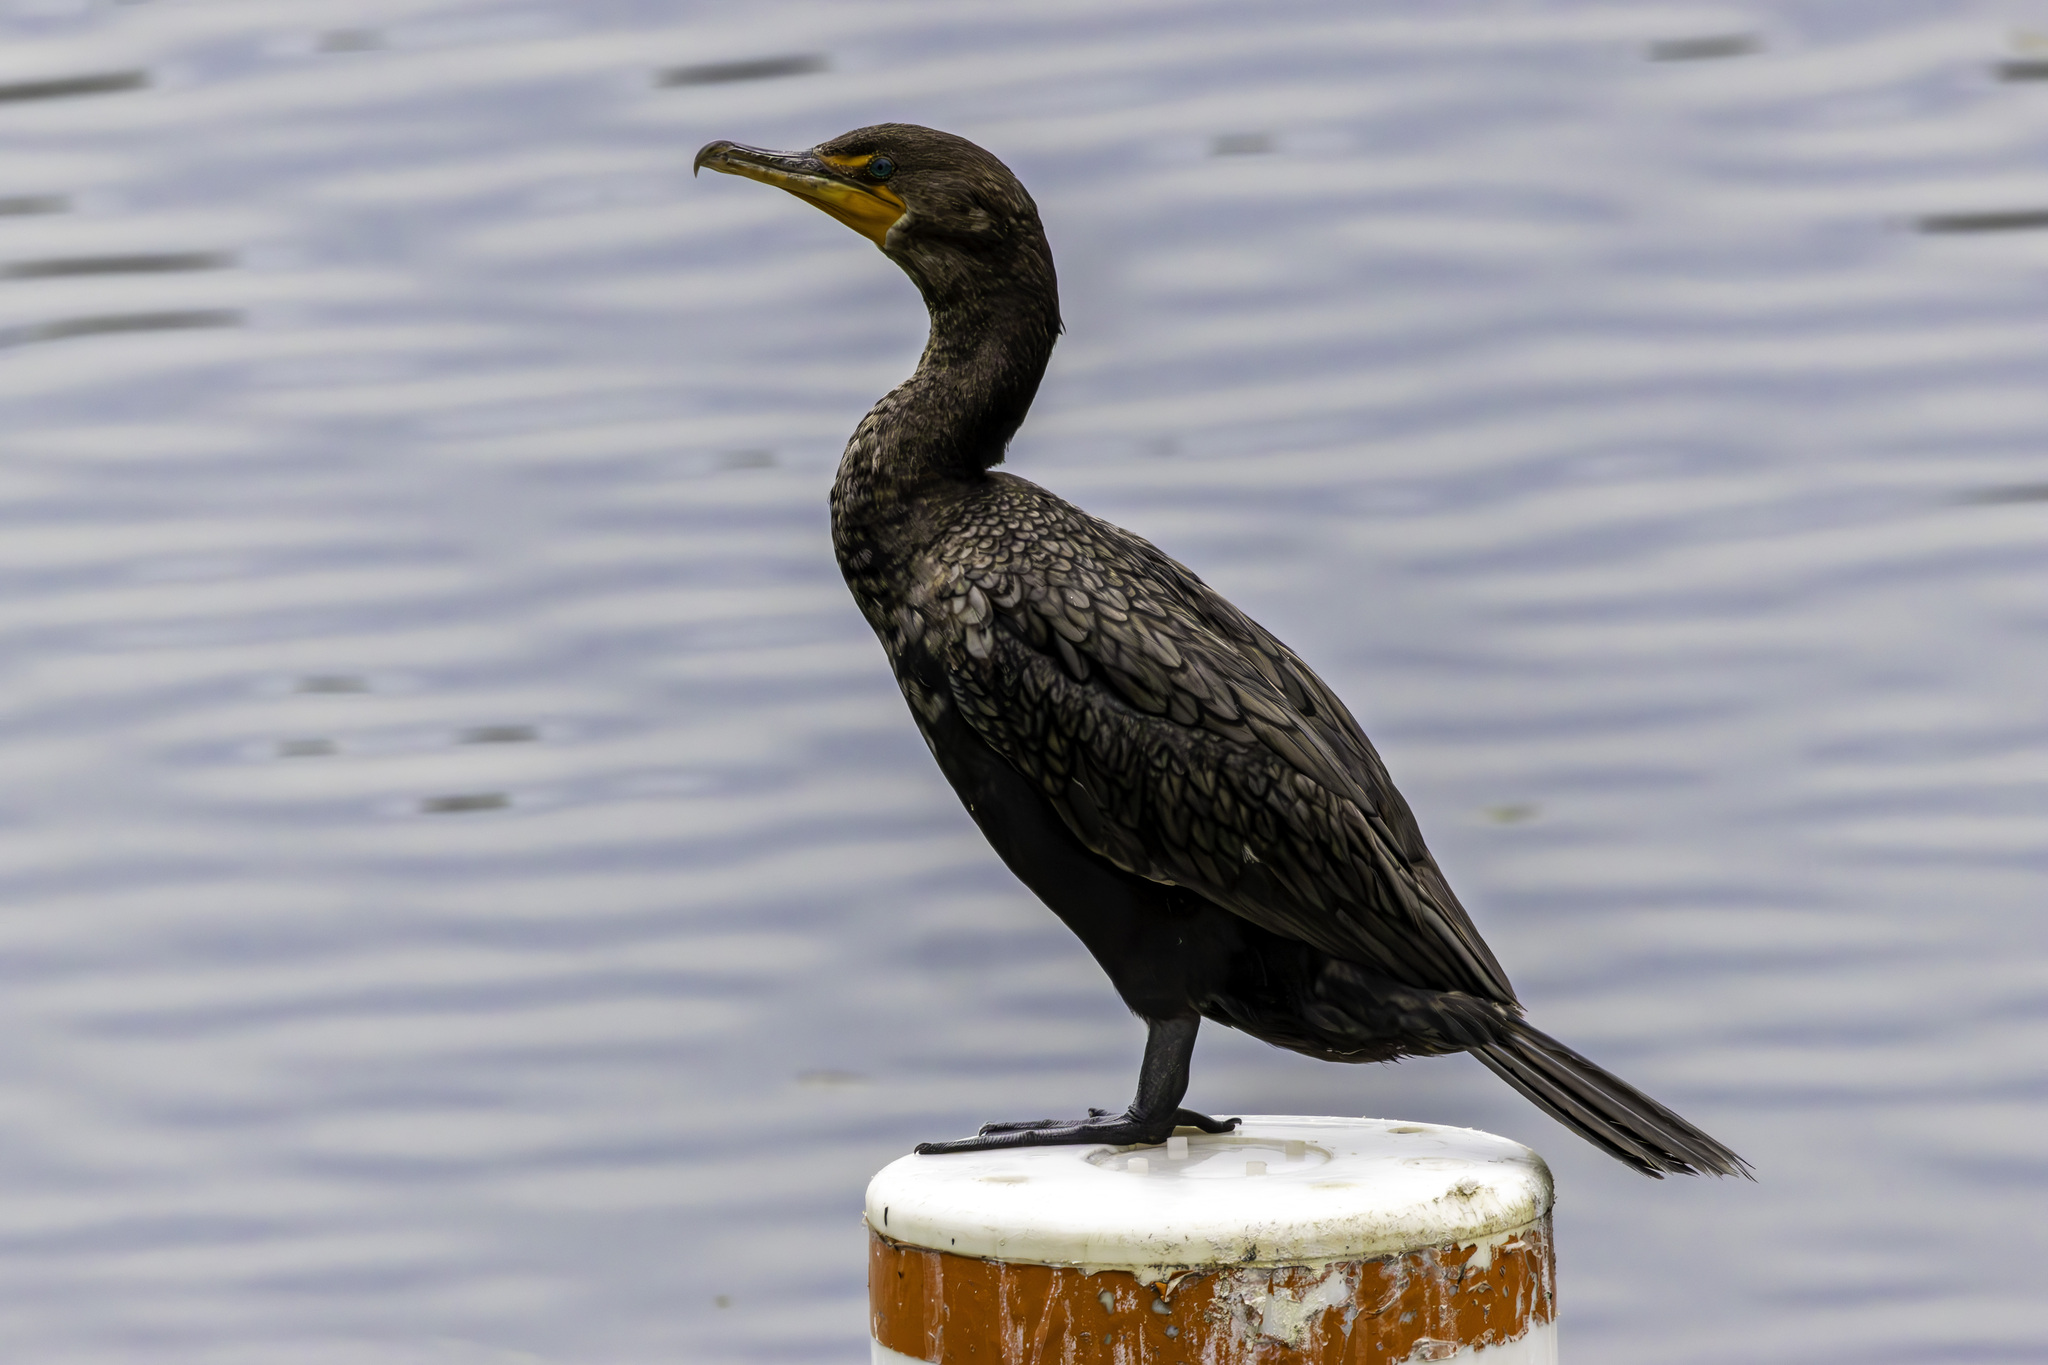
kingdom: Animalia
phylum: Chordata
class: Aves
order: Suliformes
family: Phalacrocoracidae
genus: Phalacrocorax
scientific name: Phalacrocorax auritus
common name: Double-crested cormorant
